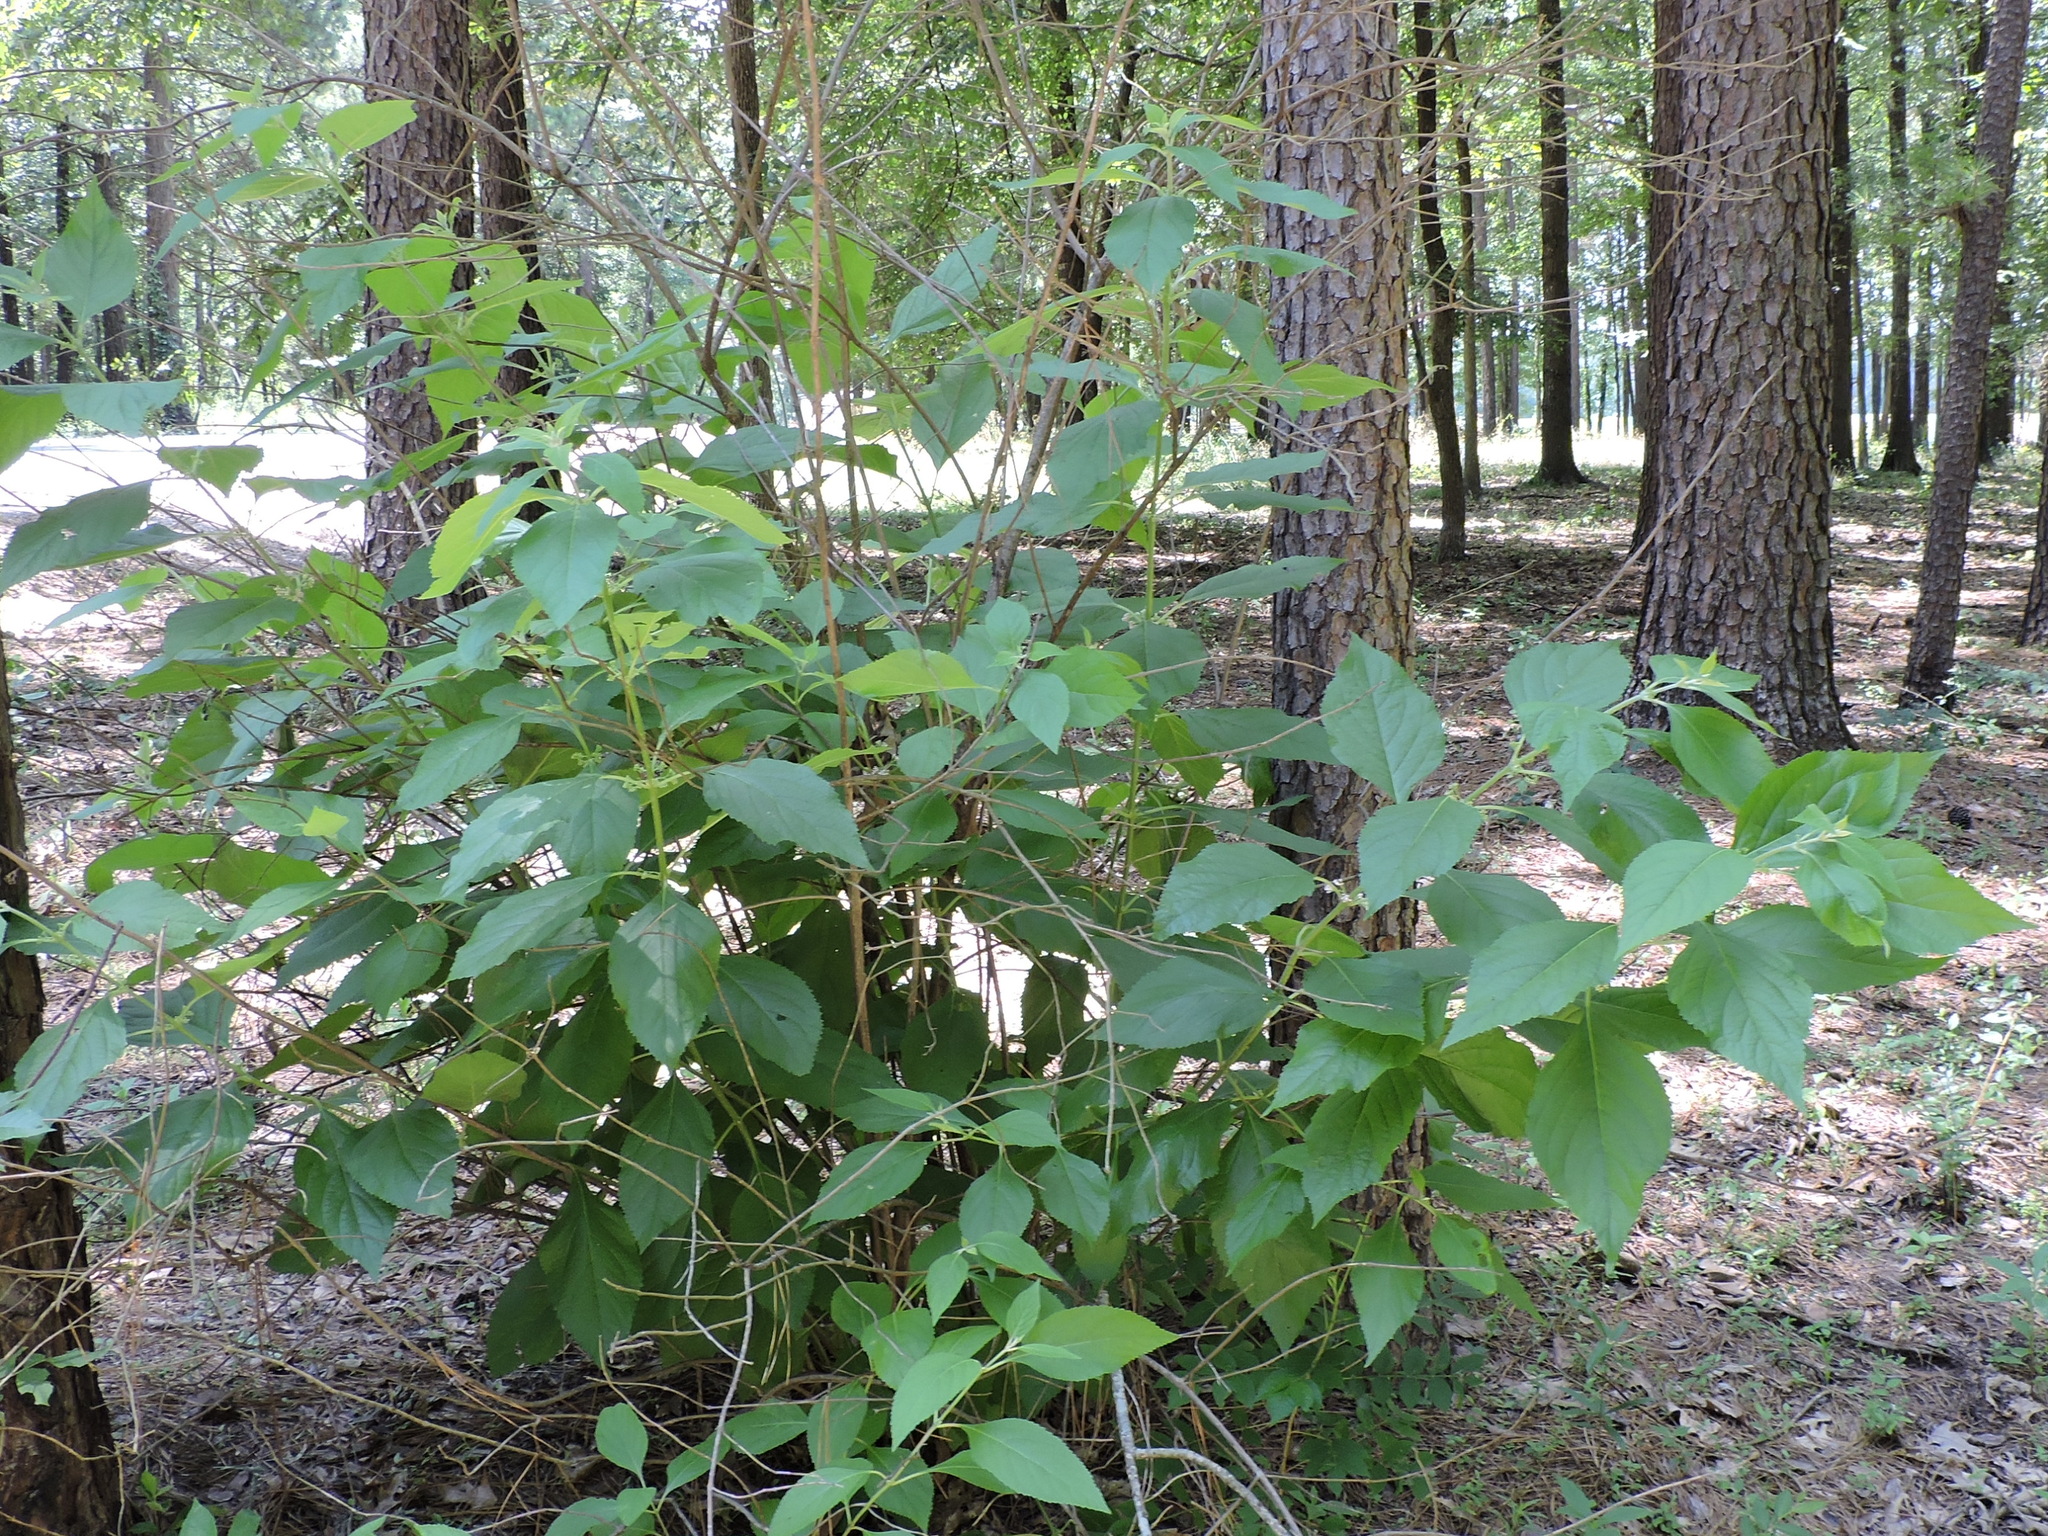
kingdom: Plantae
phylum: Tracheophyta
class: Magnoliopsida
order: Lamiales
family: Lamiaceae
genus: Callicarpa
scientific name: Callicarpa americana
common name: American beautyberry
